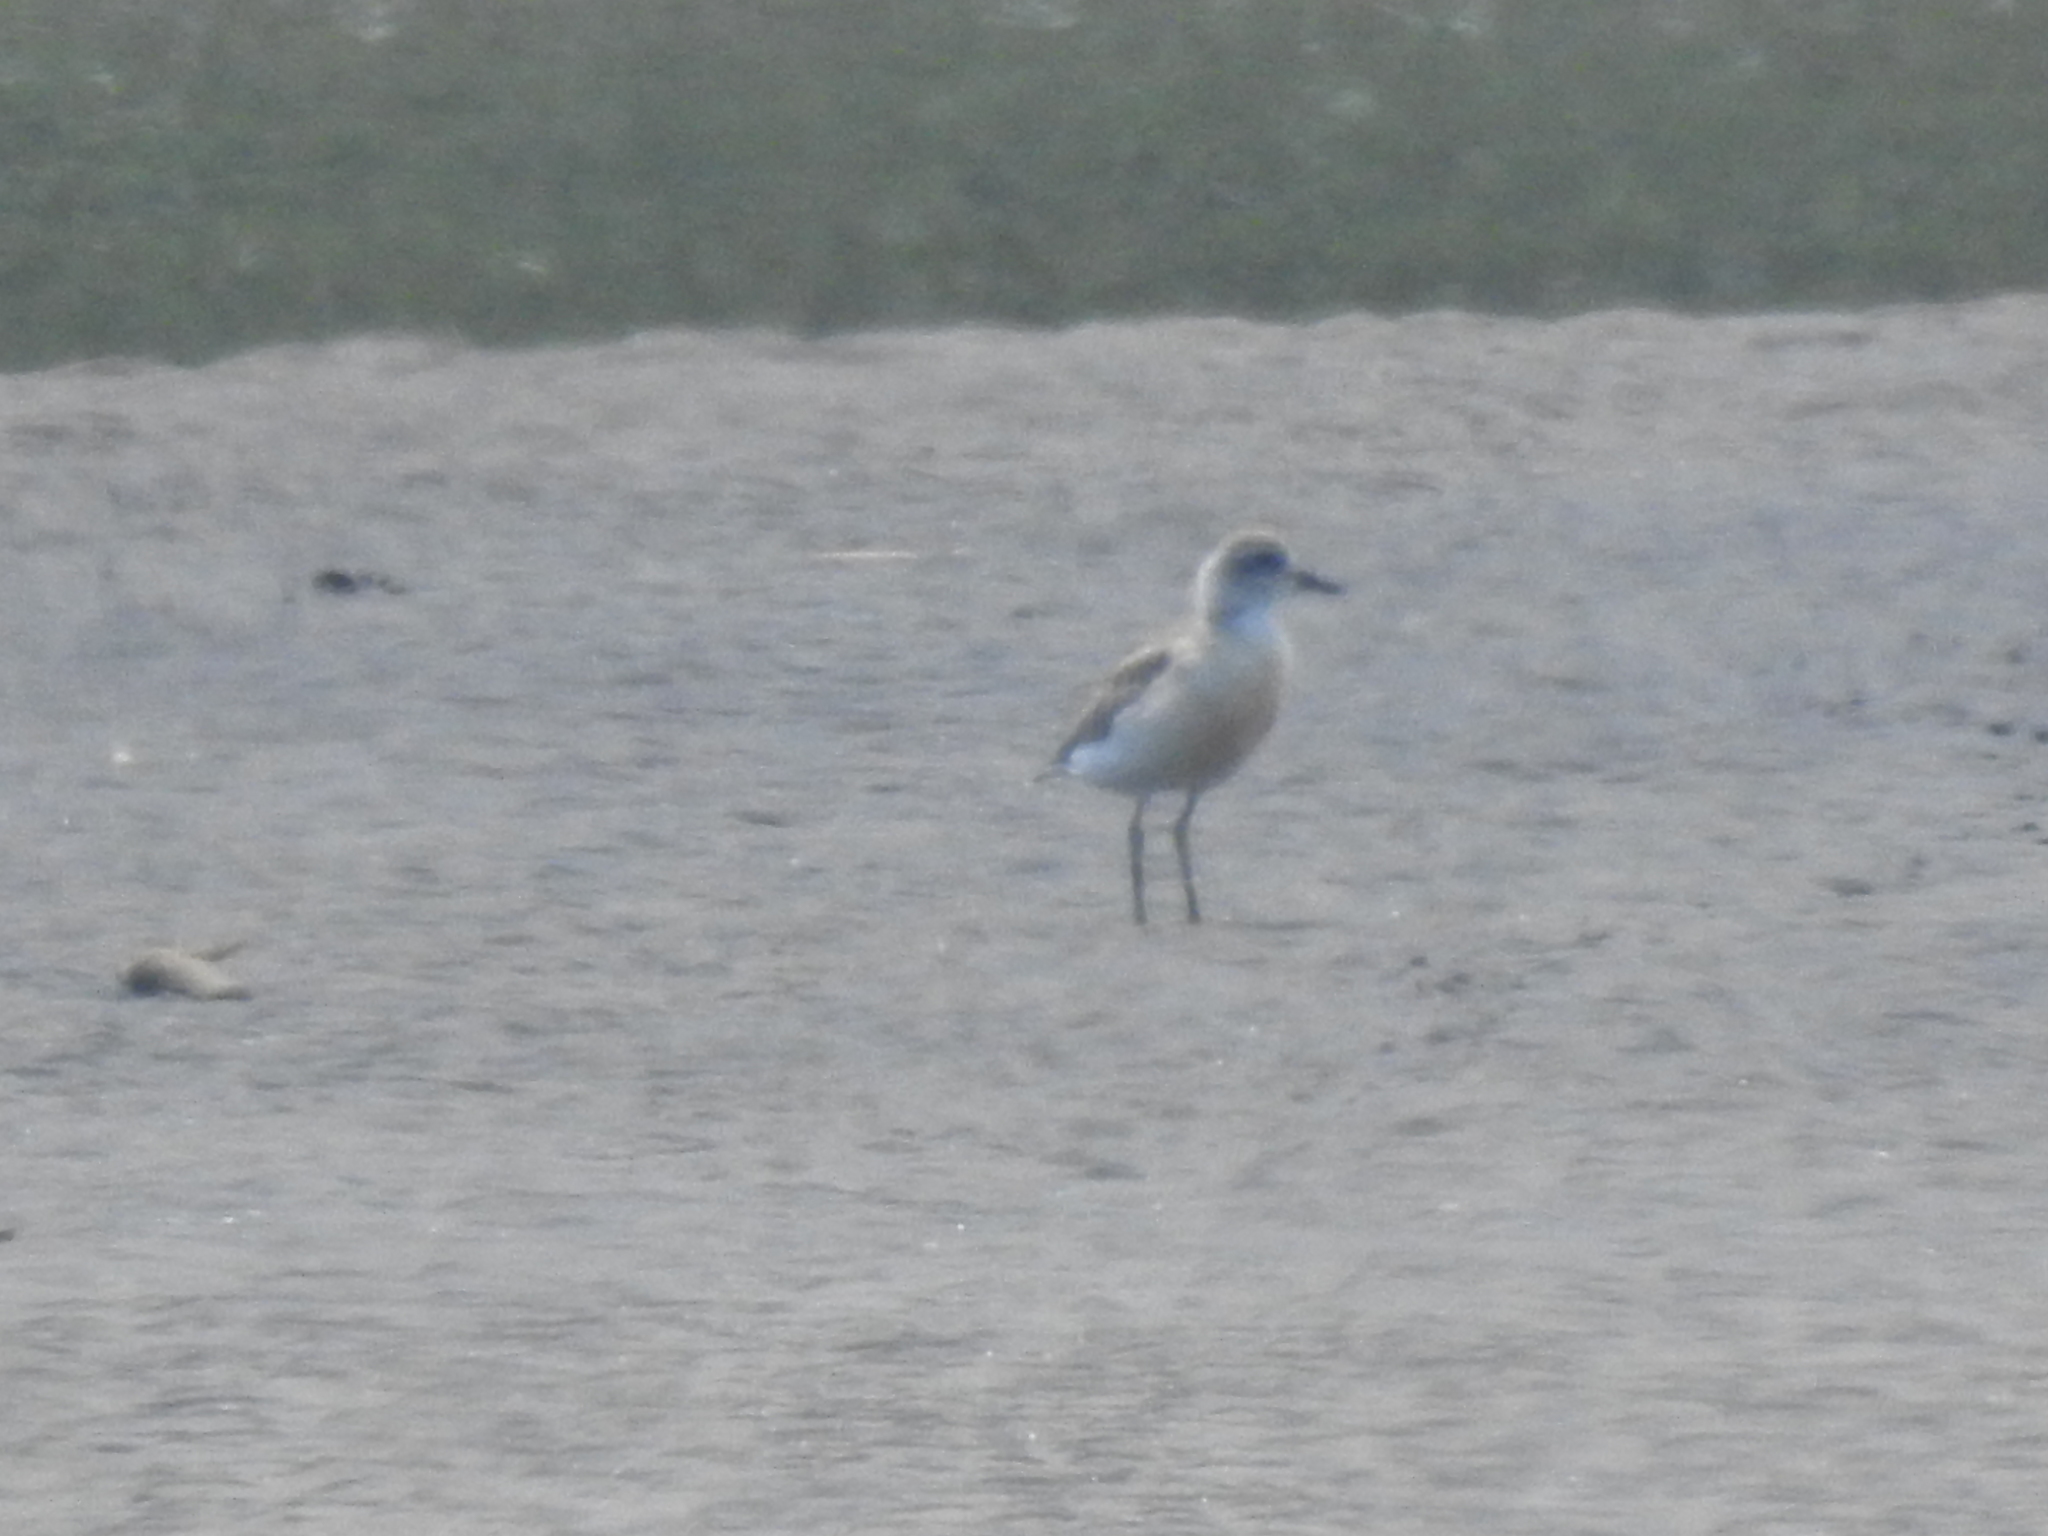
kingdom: Animalia
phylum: Chordata
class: Aves
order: Charadriiformes
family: Charadriidae
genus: Anarhynchus
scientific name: Anarhynchus
